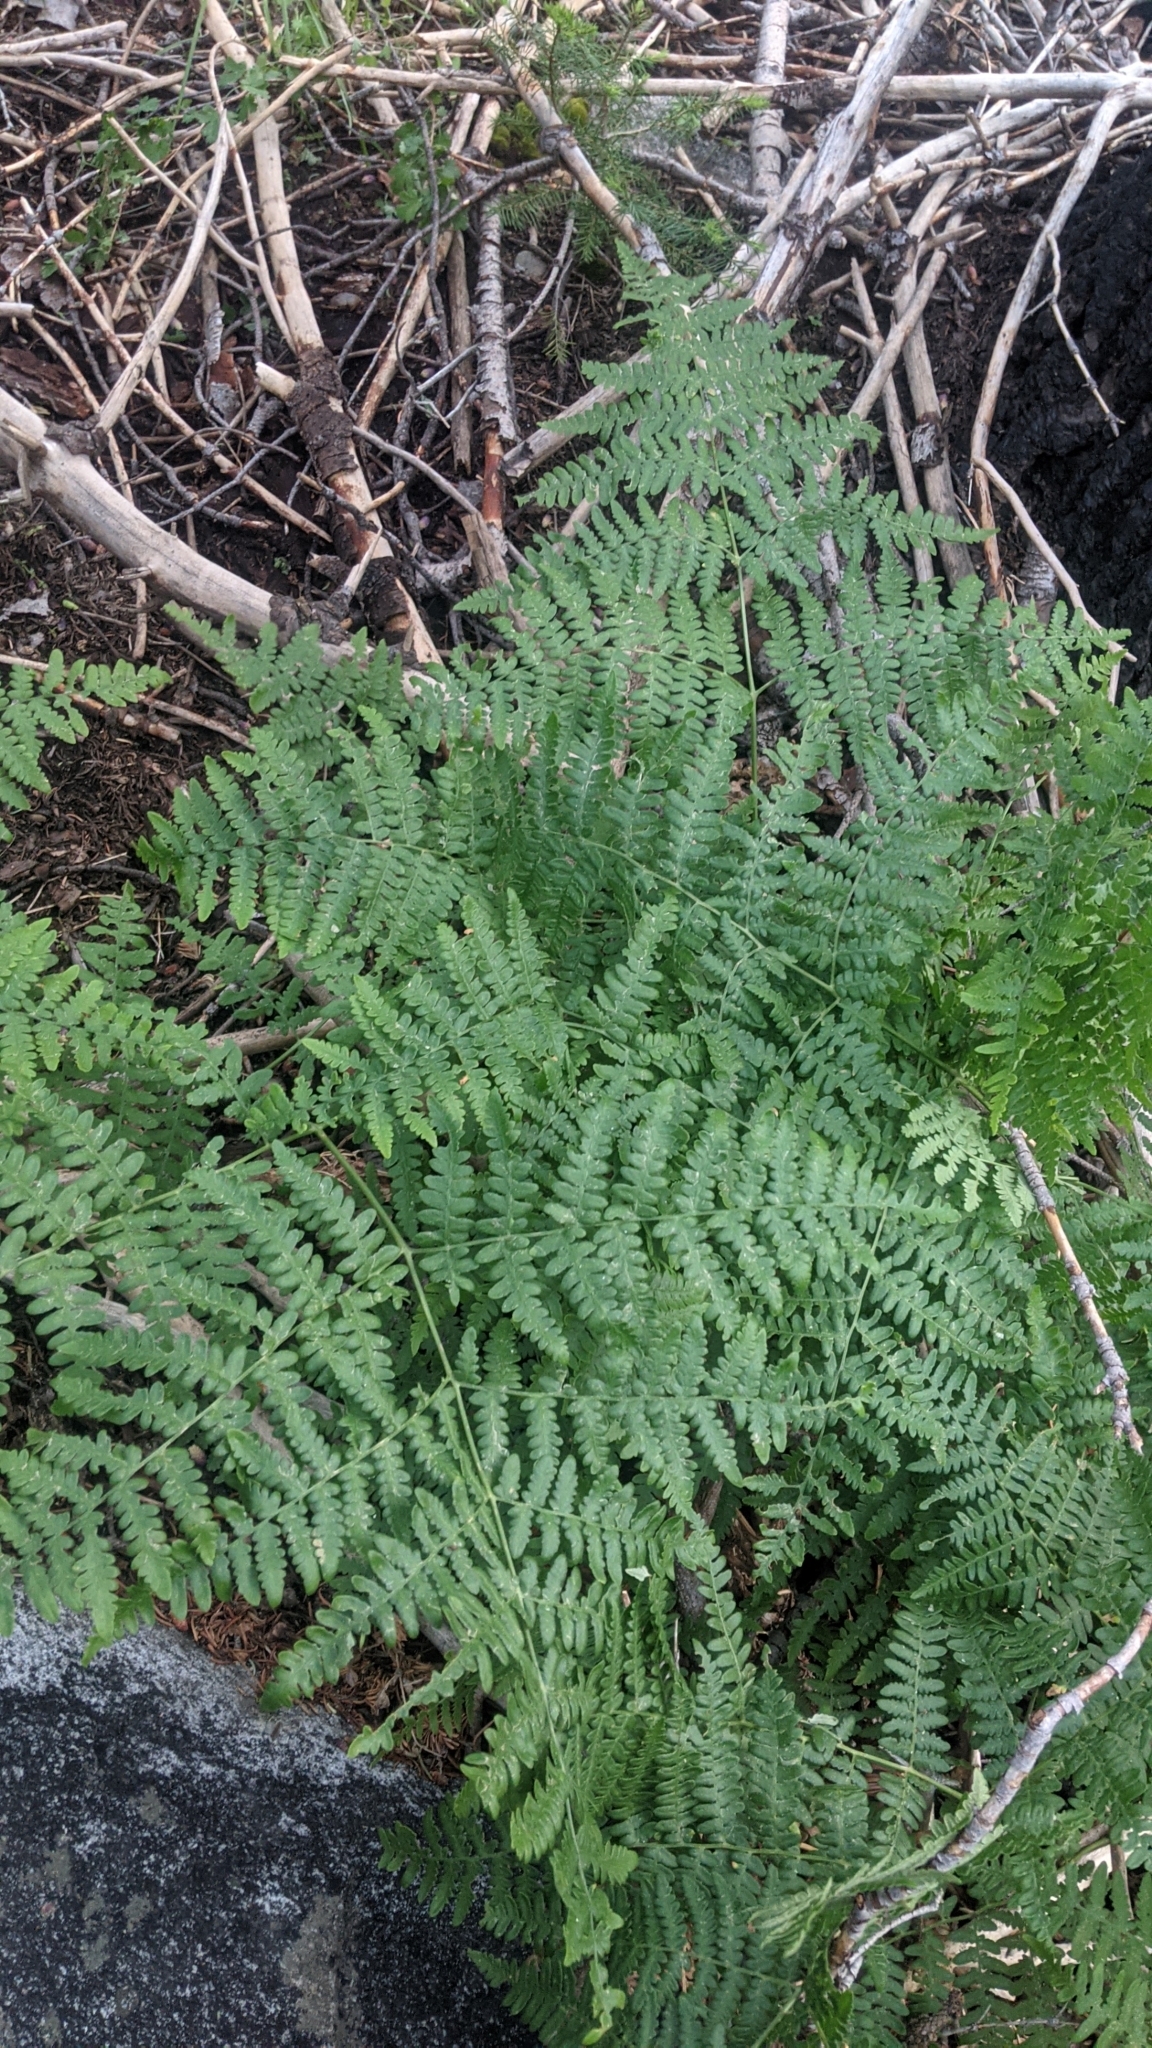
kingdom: Plantae
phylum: Tracheophyta
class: Polypodiopsida
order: Polypodiales
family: Dennstaedtiaceae
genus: Pteridium
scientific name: Pteridium aquilinum
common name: Bracken
